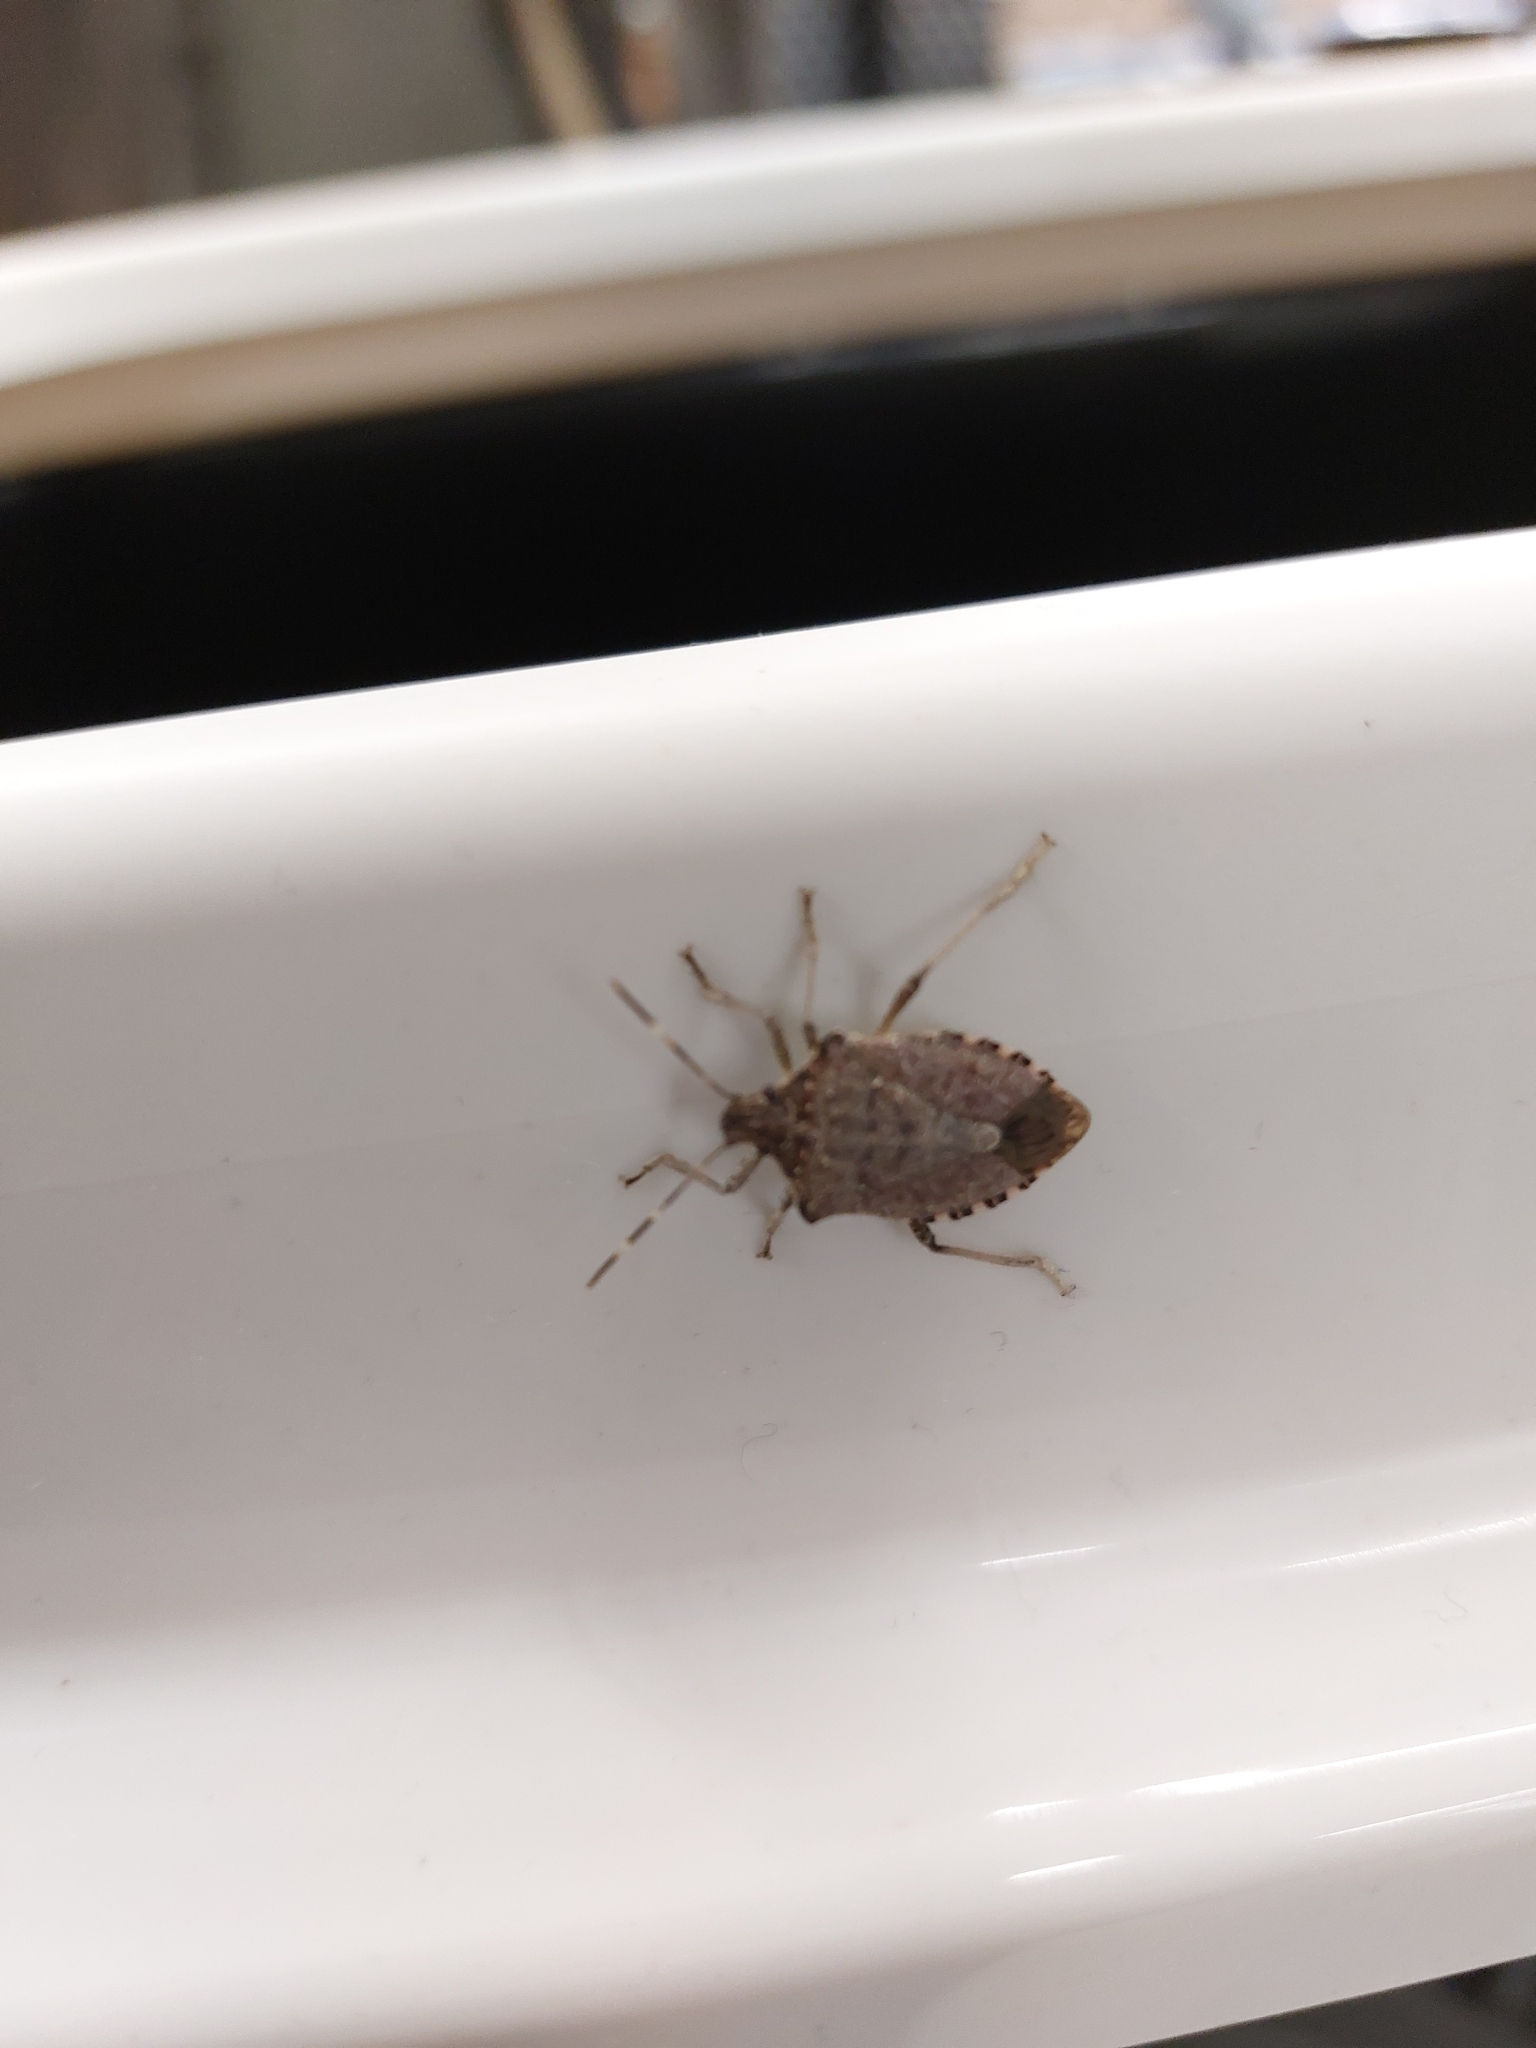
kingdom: Animalia
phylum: Arthropoda
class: Insecta
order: Hemiptera
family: Pentatomidae
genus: Halyomorpha
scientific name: Halyomorpha halys
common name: Brown marmorated stink bug
